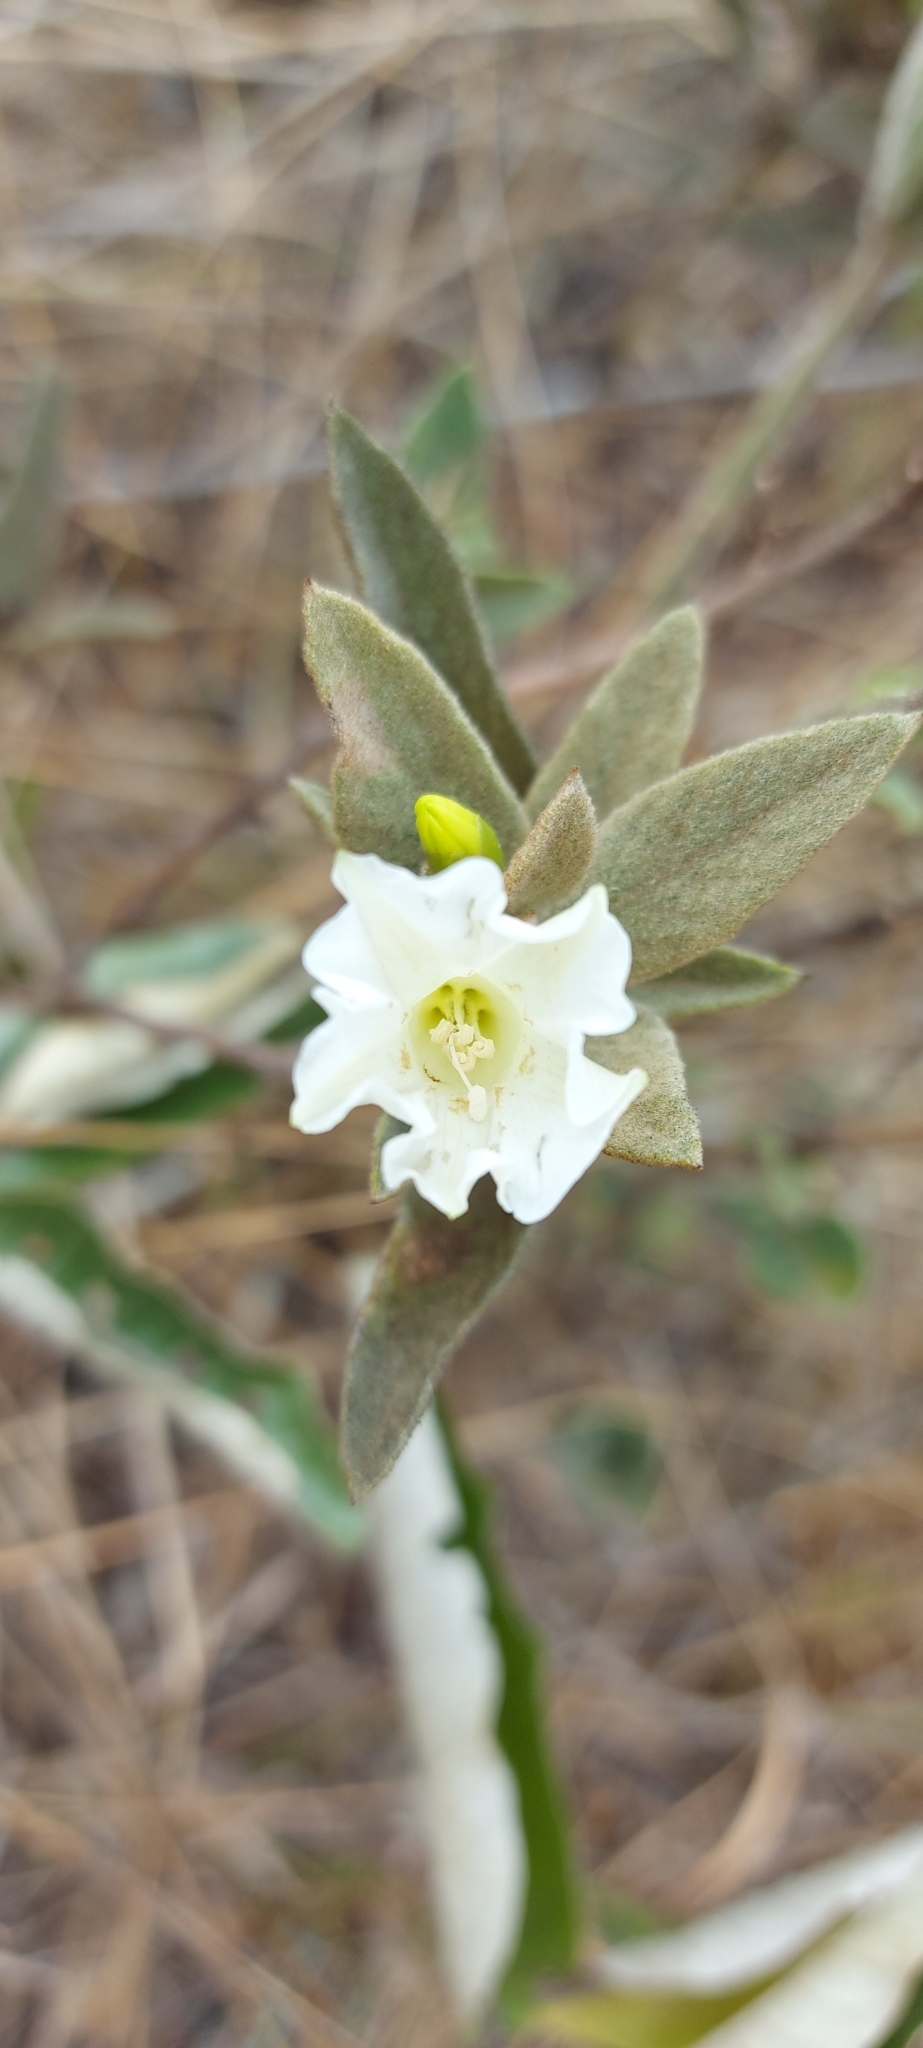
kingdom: Plantae
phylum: Tracheophyta
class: Magnoliopsida
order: Solanales
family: Convolvulaceae
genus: Distimake
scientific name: Distimake tomentosus
